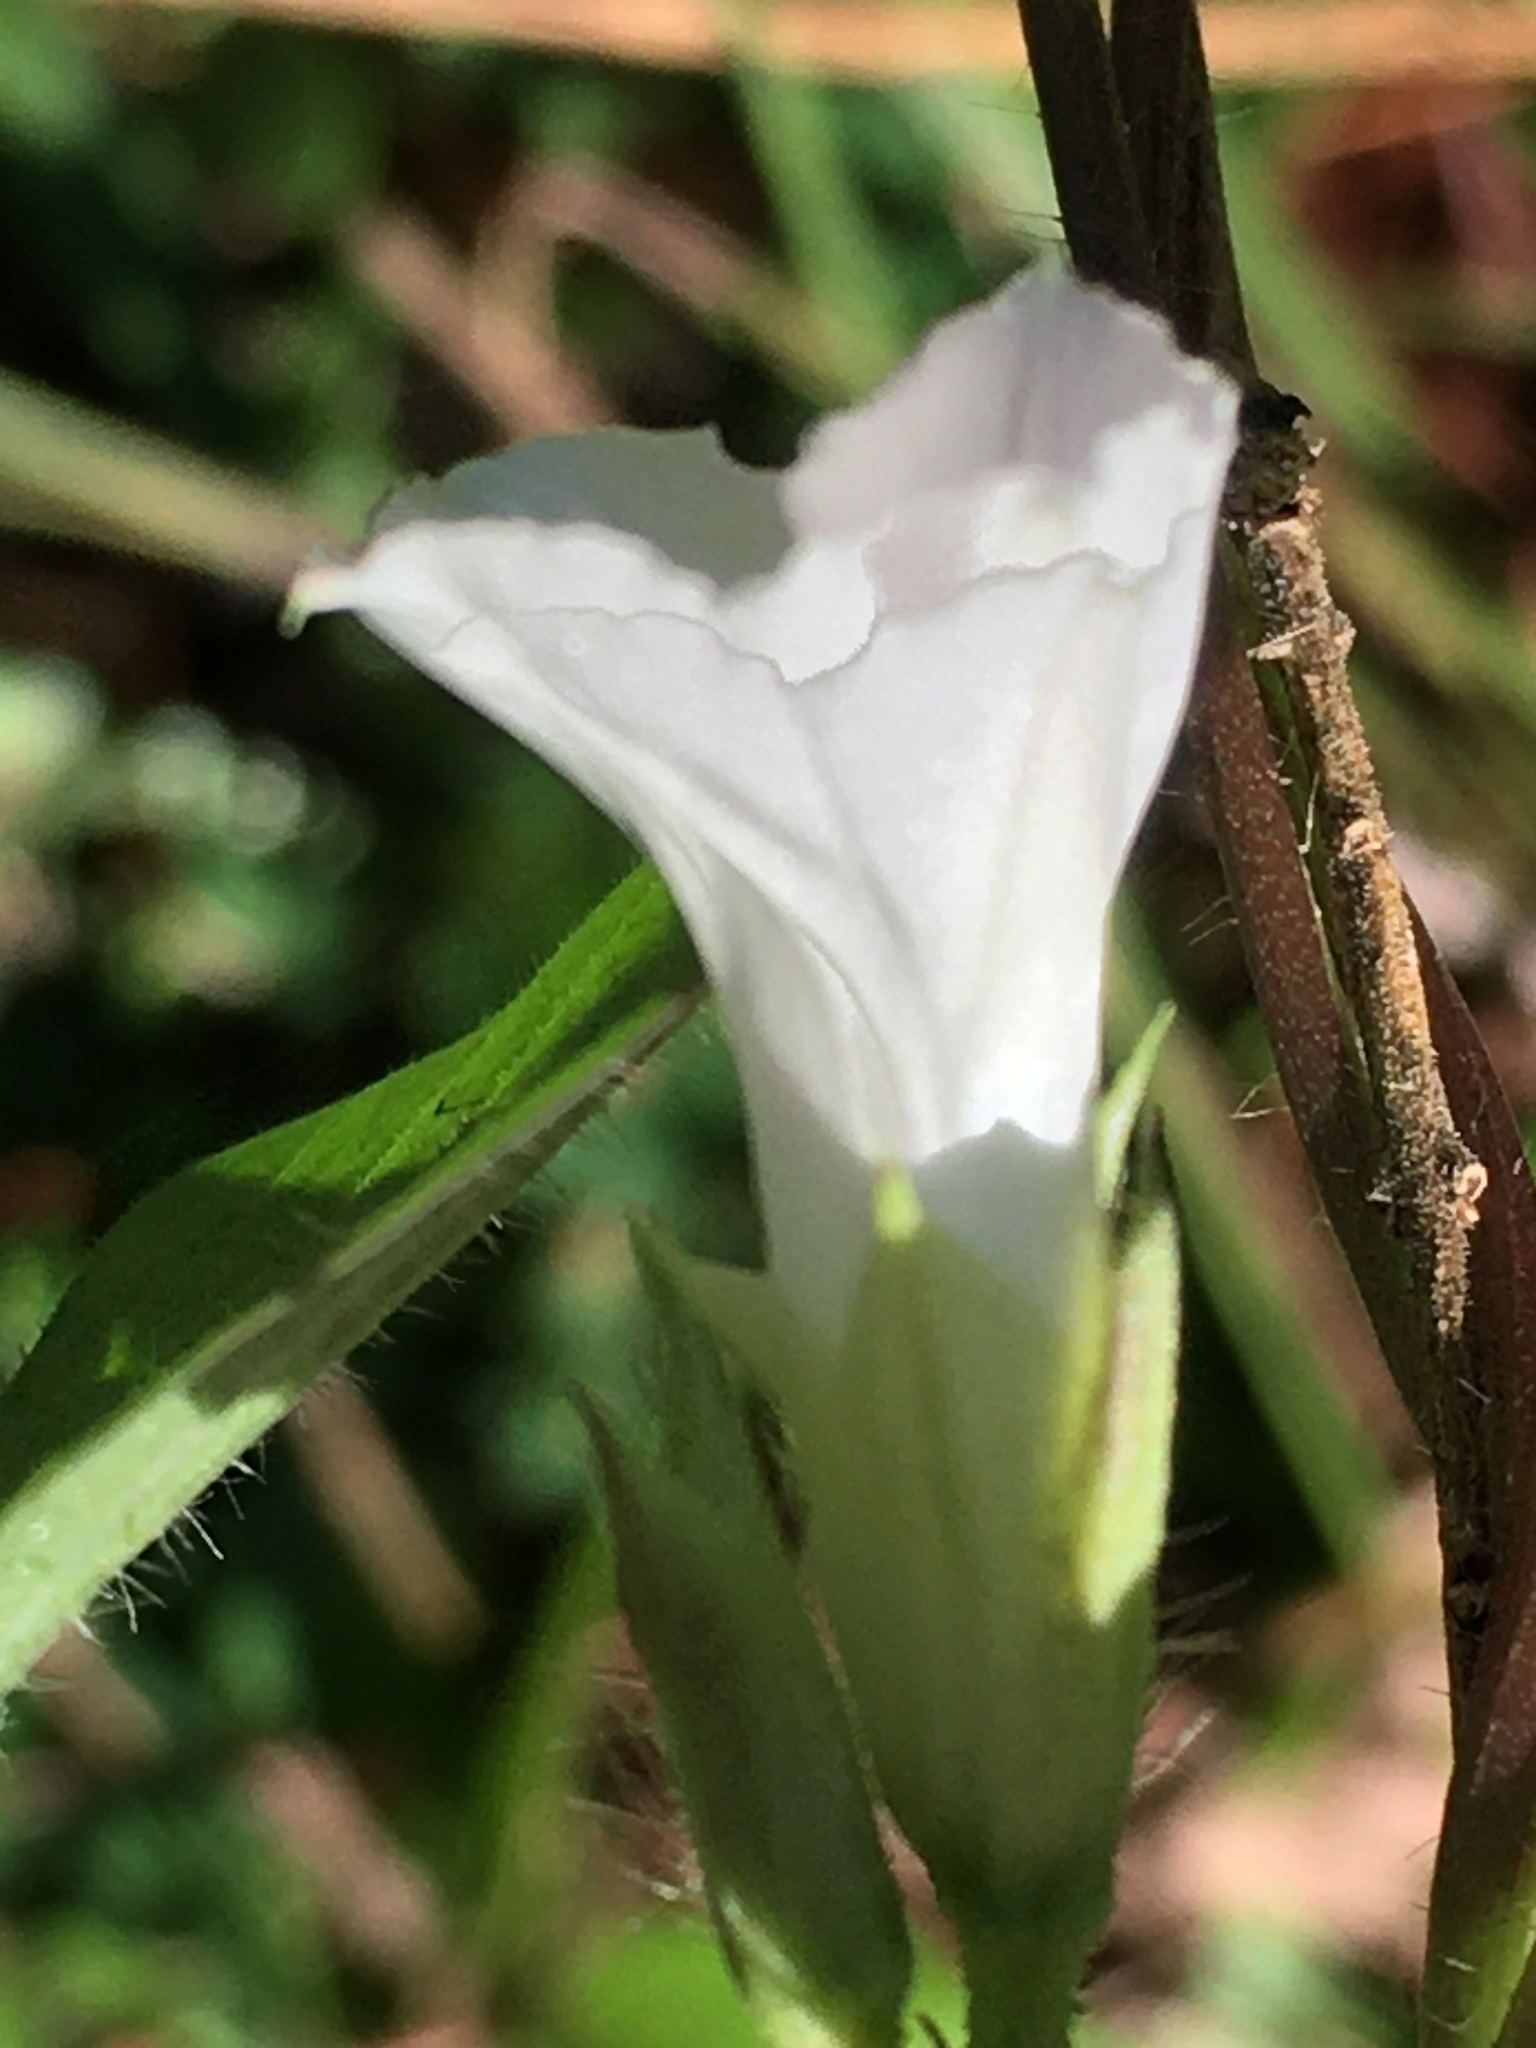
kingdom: Plantae
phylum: Tracheophyta
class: Magnoliopsida
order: Solanales
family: Convolvulaceae
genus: Ipomoea
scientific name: Ipomoea lacunosa
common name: White morning-glory
